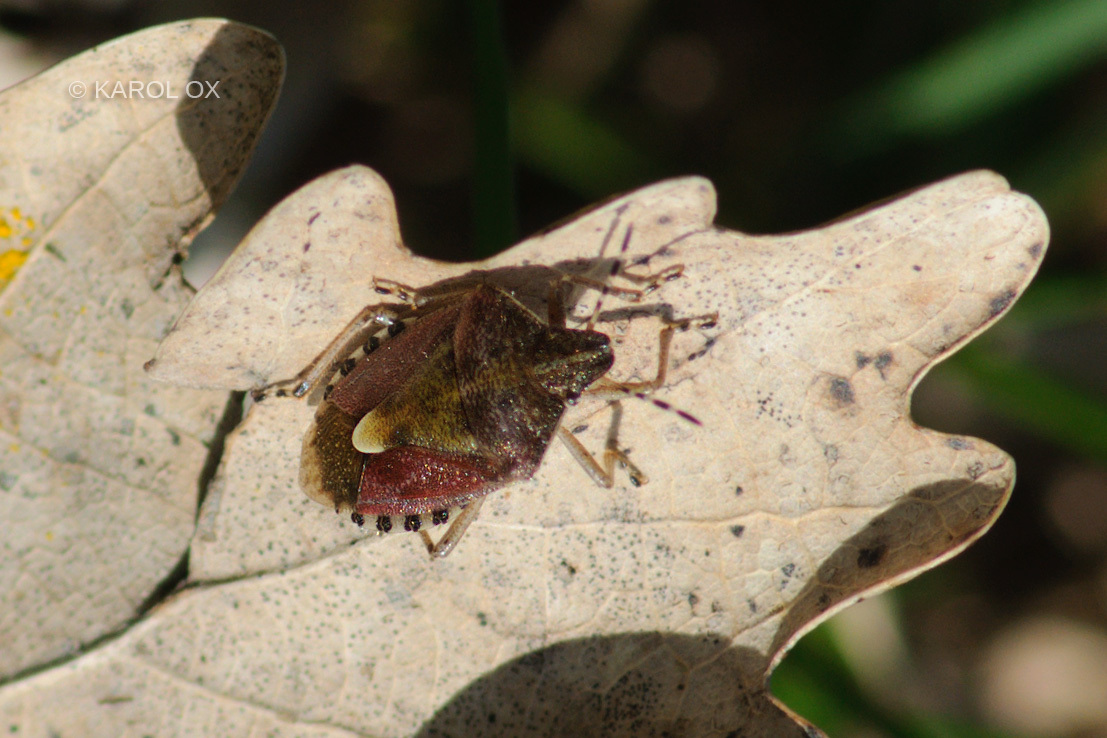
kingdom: Animalia
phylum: Arthropoda
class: Insecta
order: Hemiptera
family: Pentatomidae
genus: Dolycoris
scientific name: Dolycoris baccarum
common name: Sloe bug
